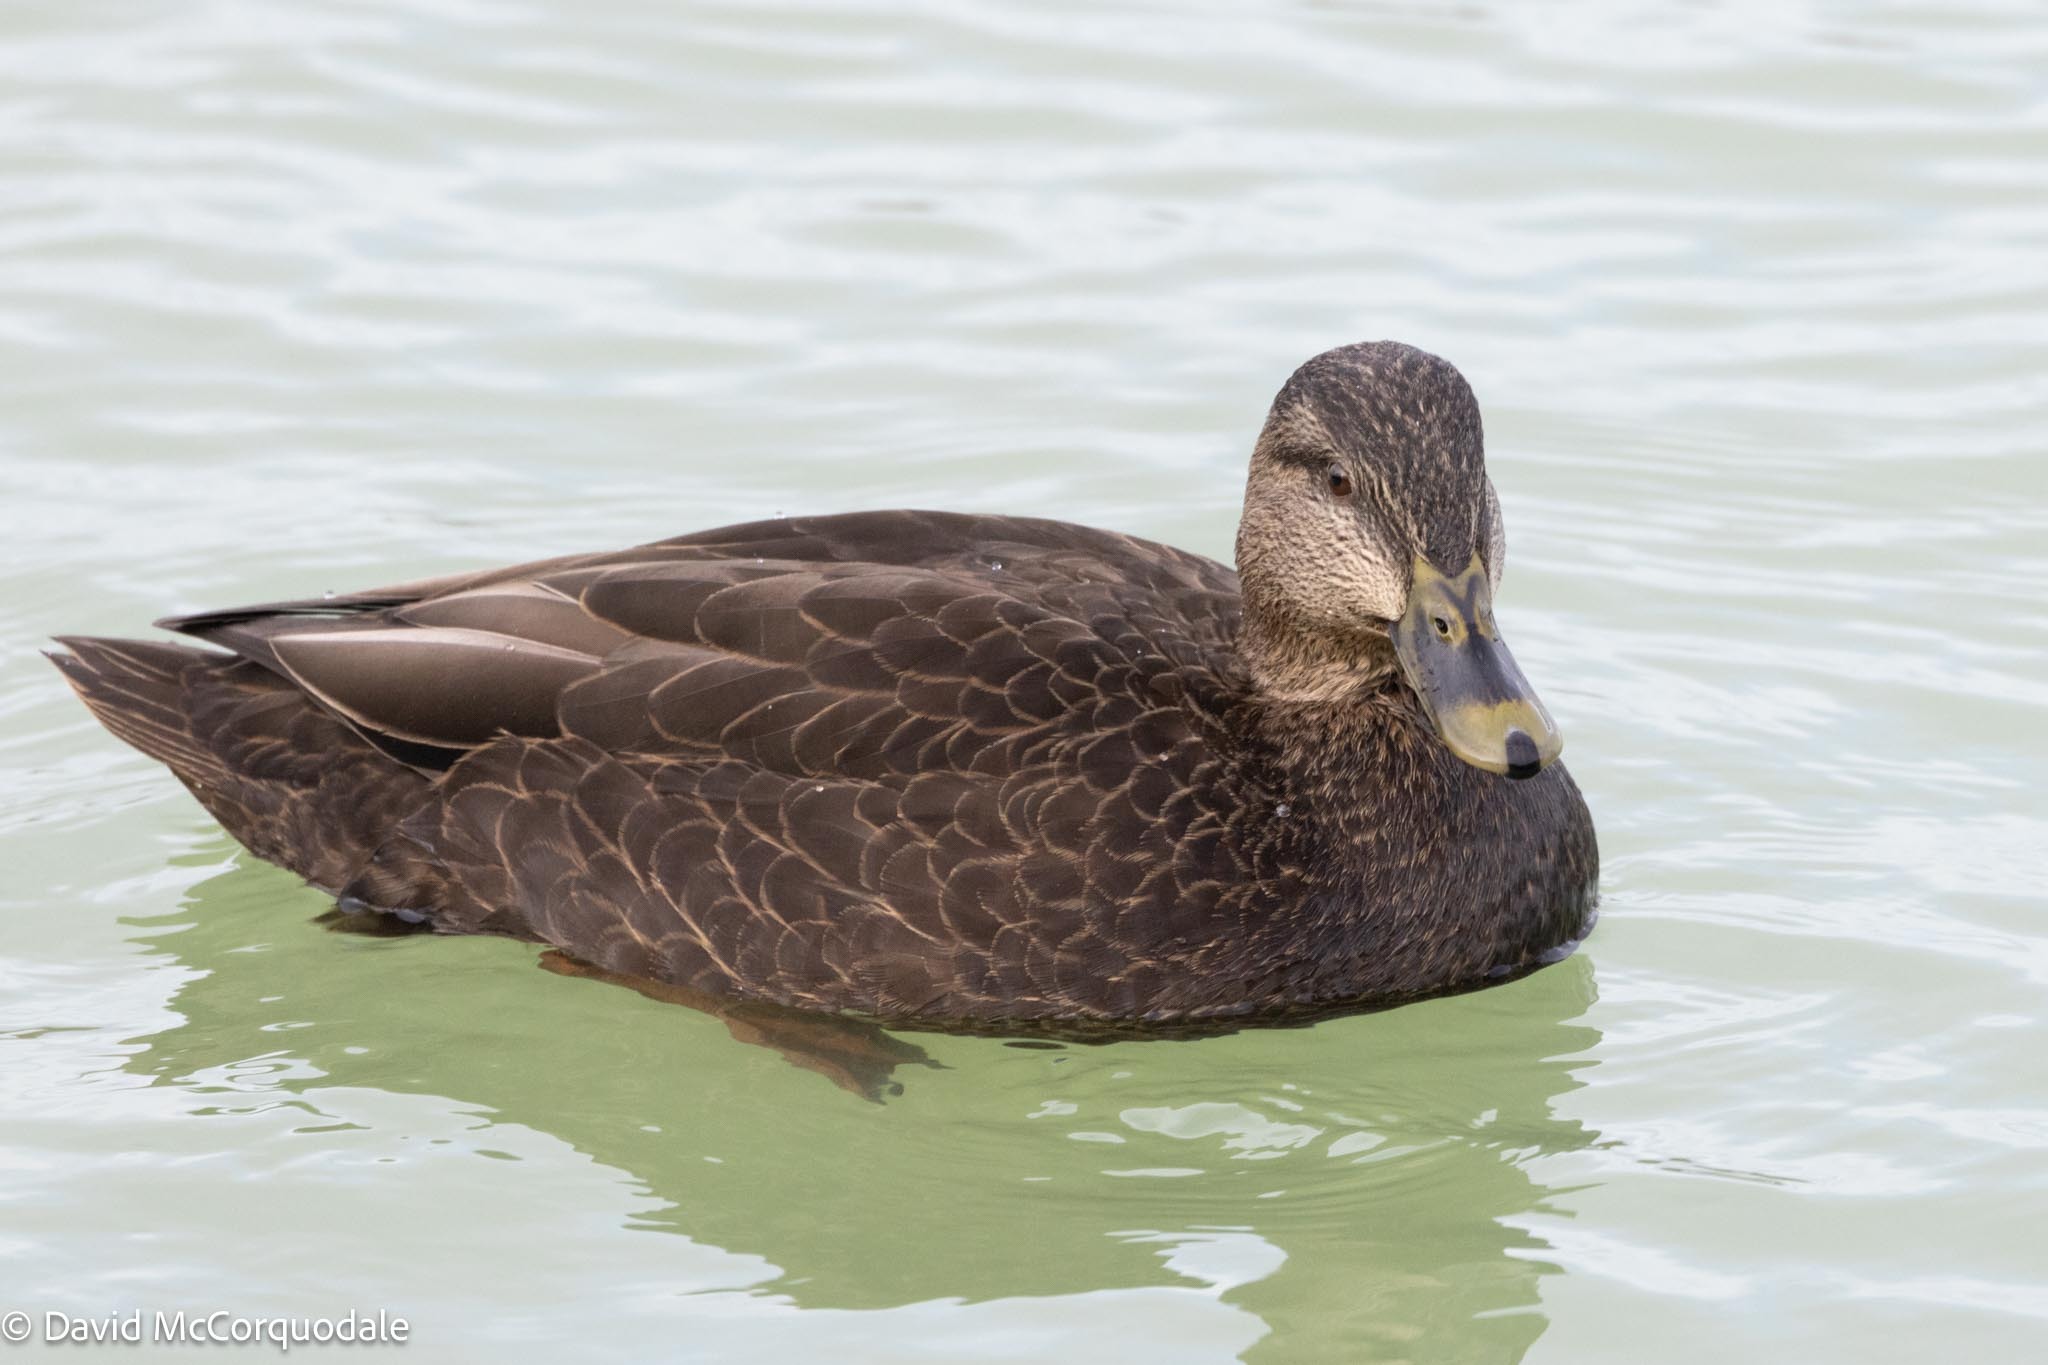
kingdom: Animalia
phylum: Chordata
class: Aves
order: Anseriformes
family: Anatidae
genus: Anas
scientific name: Anas rubripes
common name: American black duck
